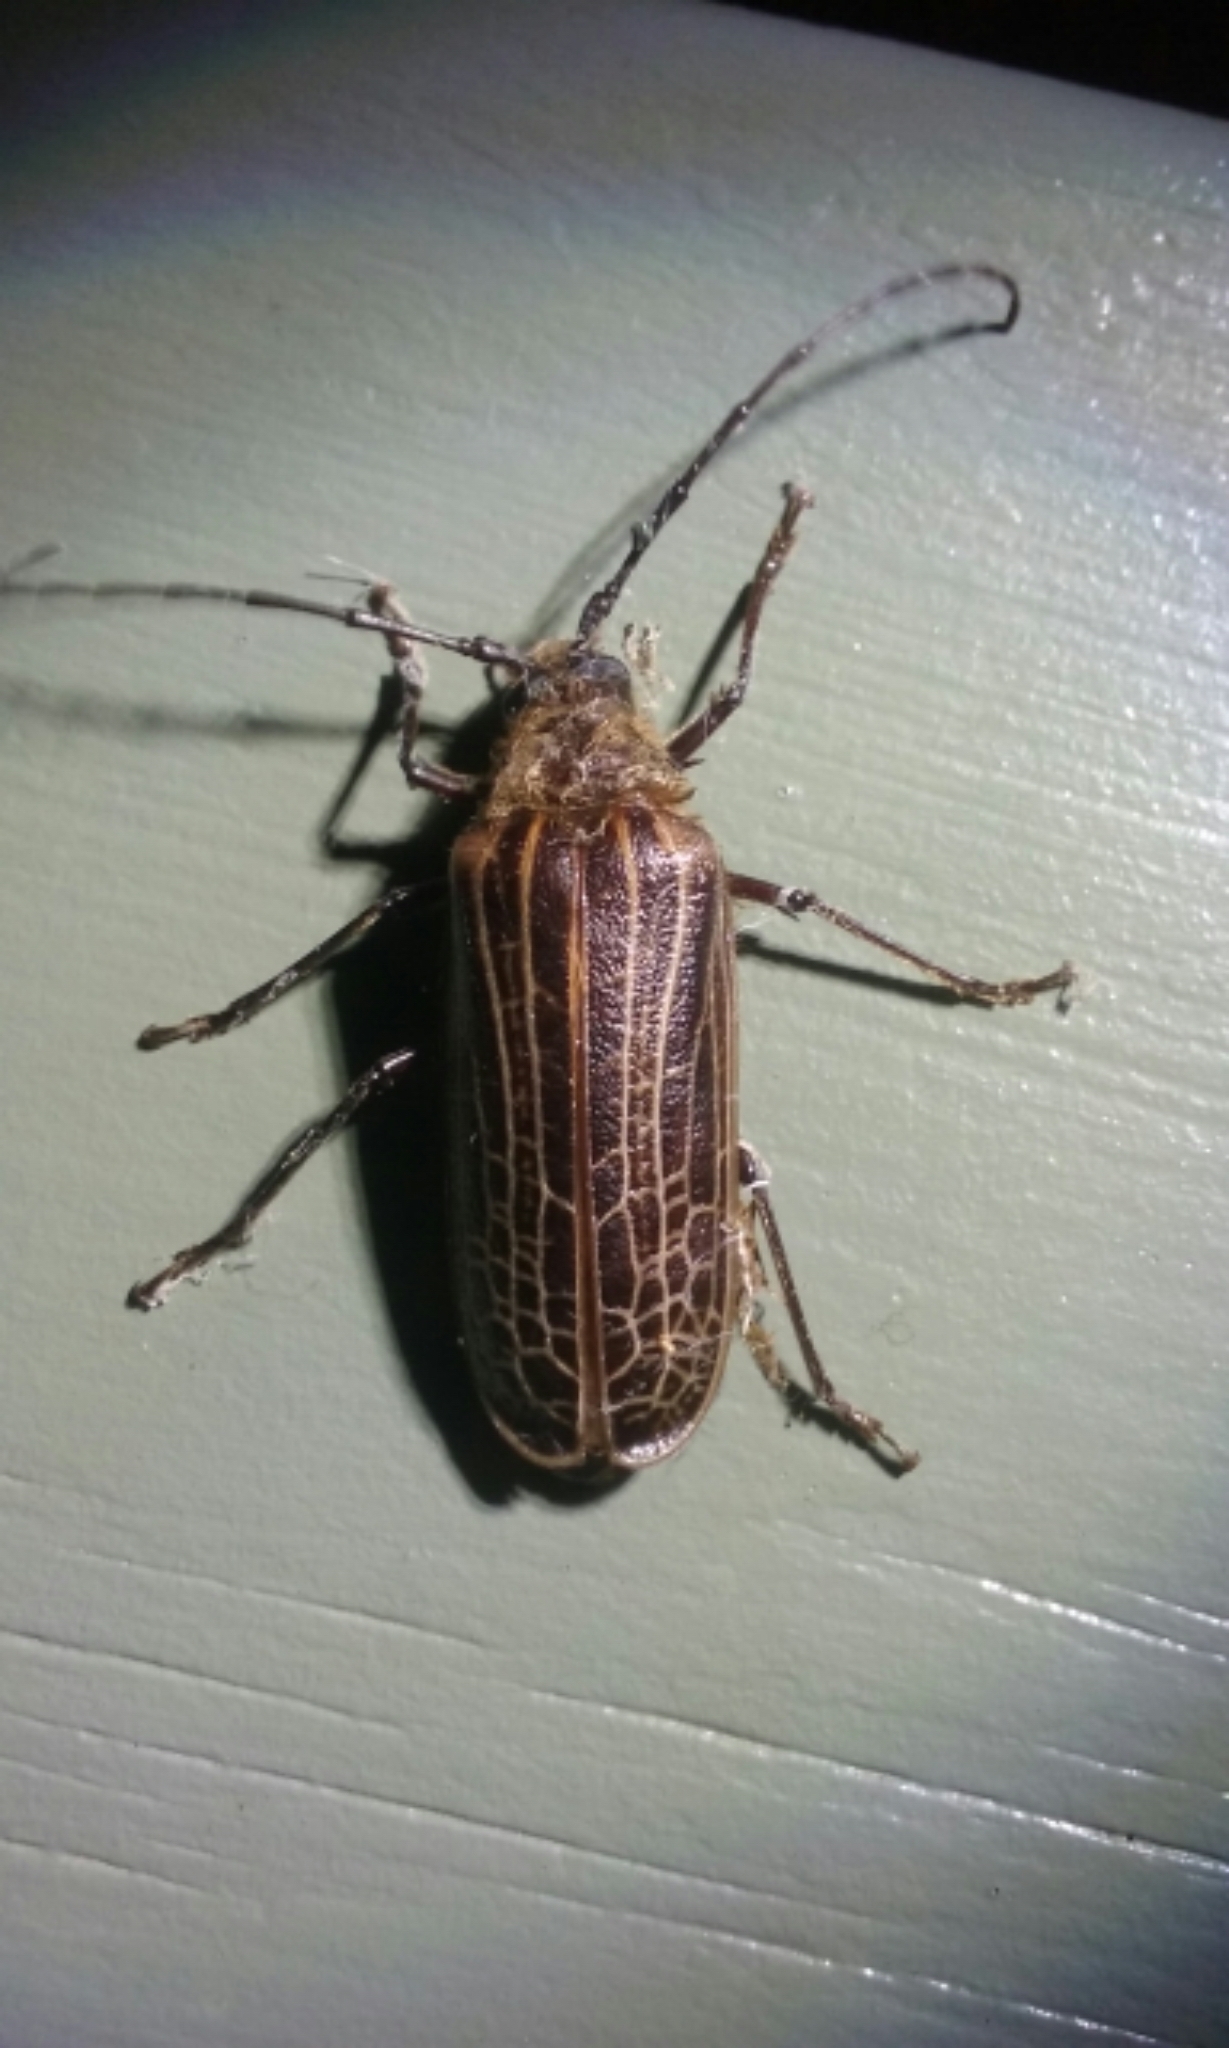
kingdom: Animalia
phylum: Arthropoda
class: Insecta
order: Coleoptera
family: Cerambycidae
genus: Prionoplus
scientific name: Prionoplus reticularis
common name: Huhu beetle
